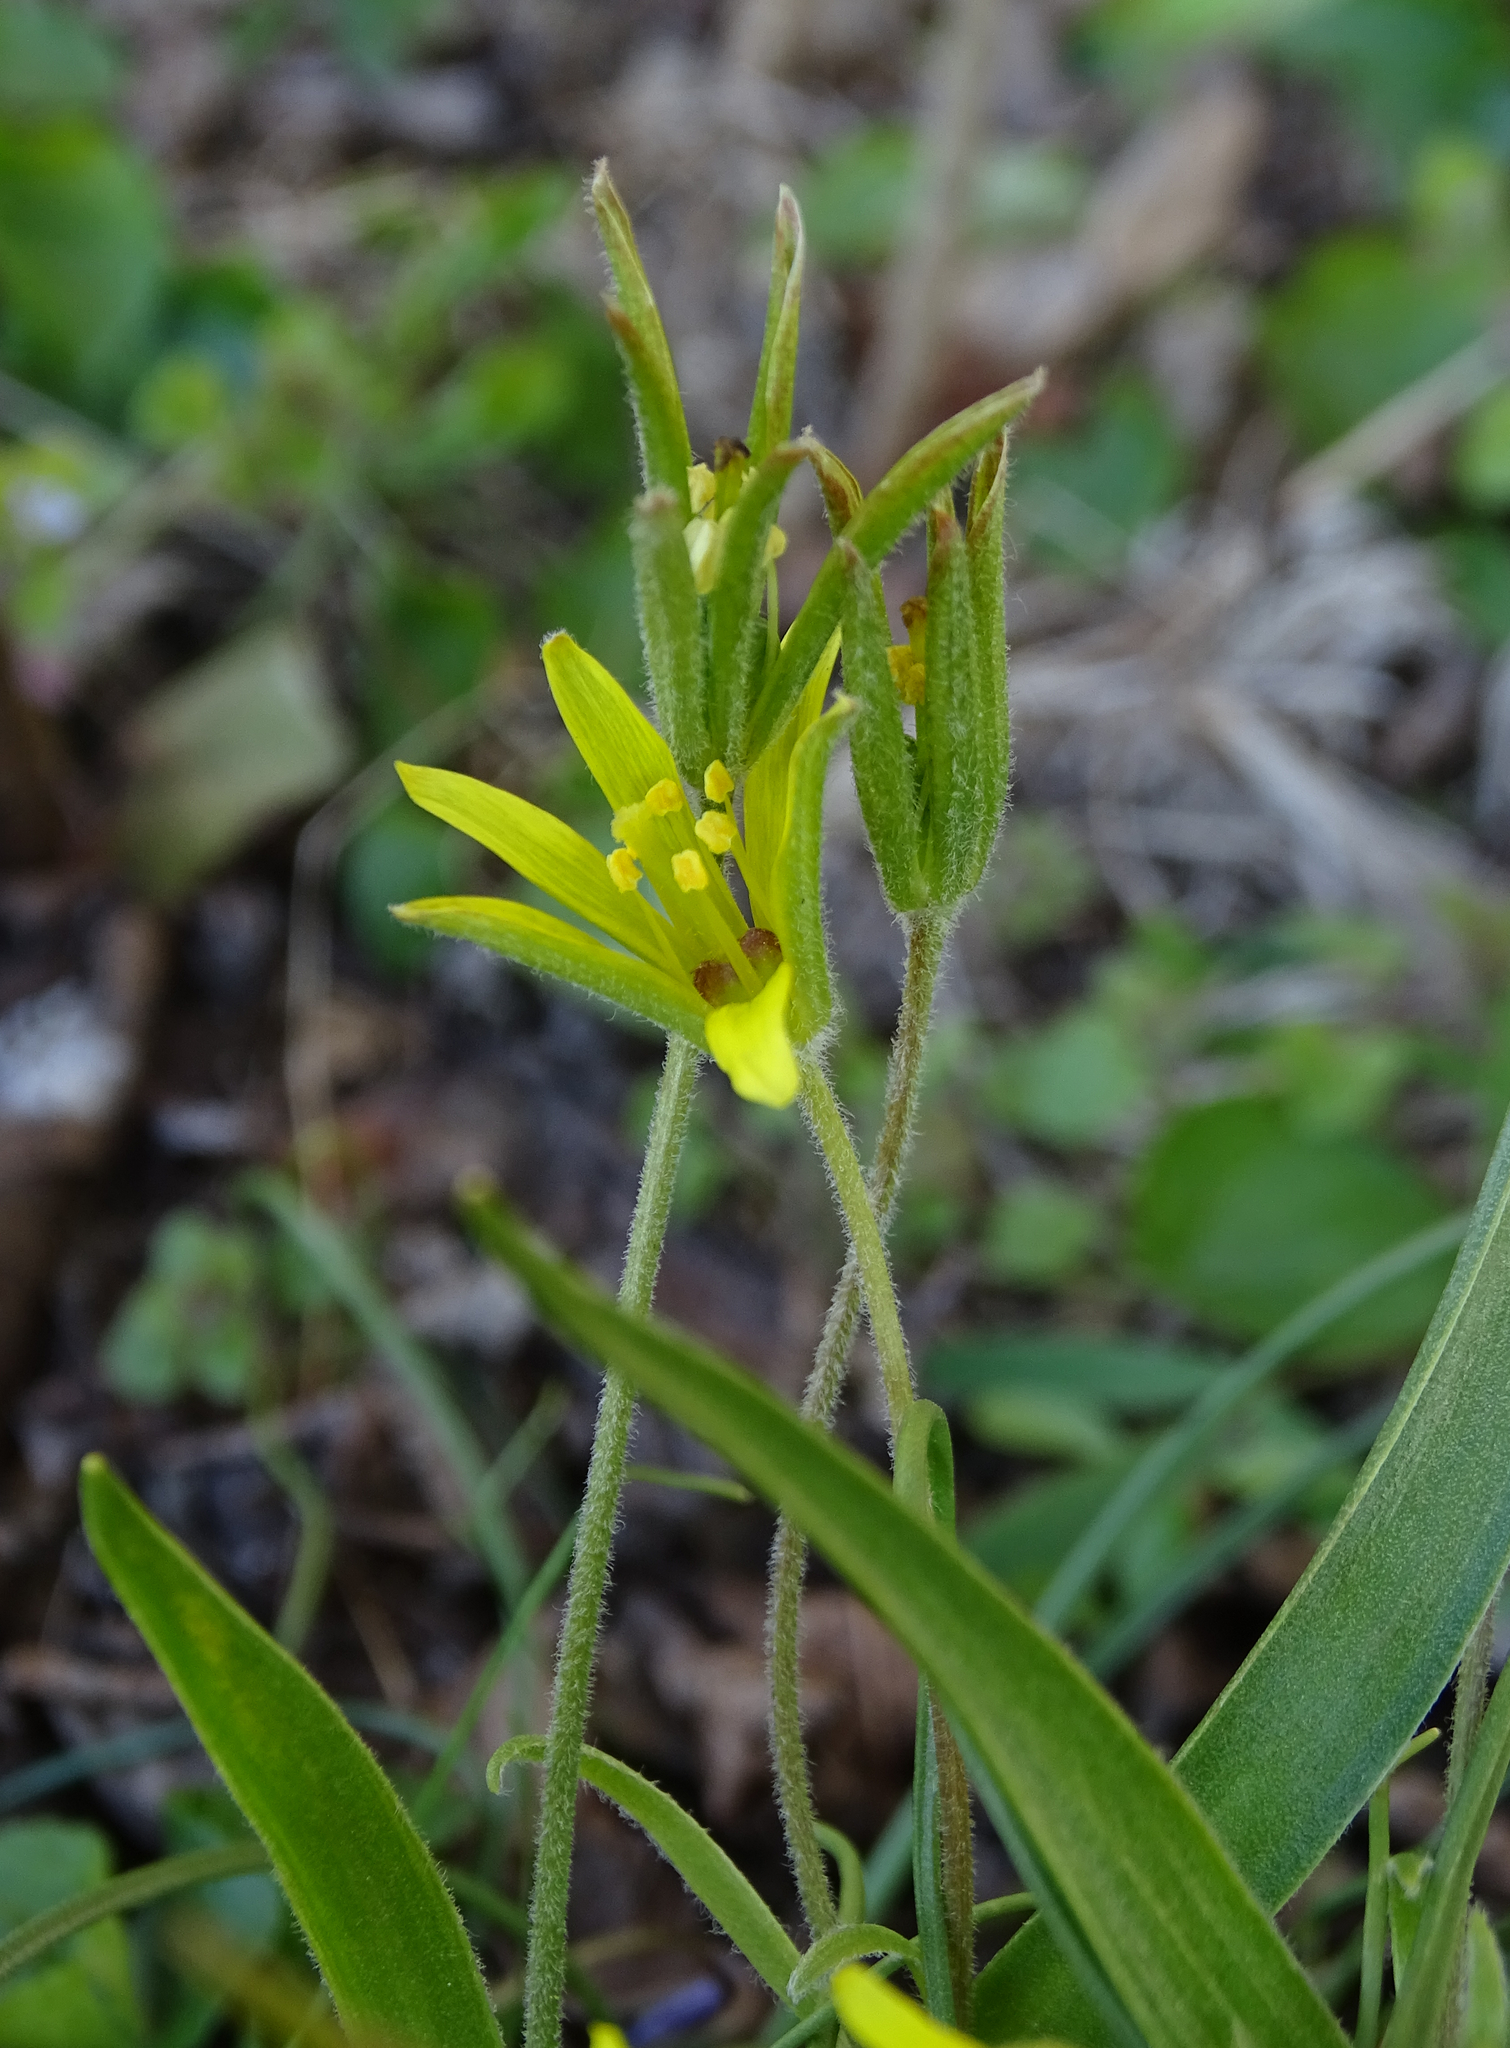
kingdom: Plantae
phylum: Tracheophyta
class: Liliopsida
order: Liliales
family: Liliaceae
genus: Gagea
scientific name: Gagea villosa
